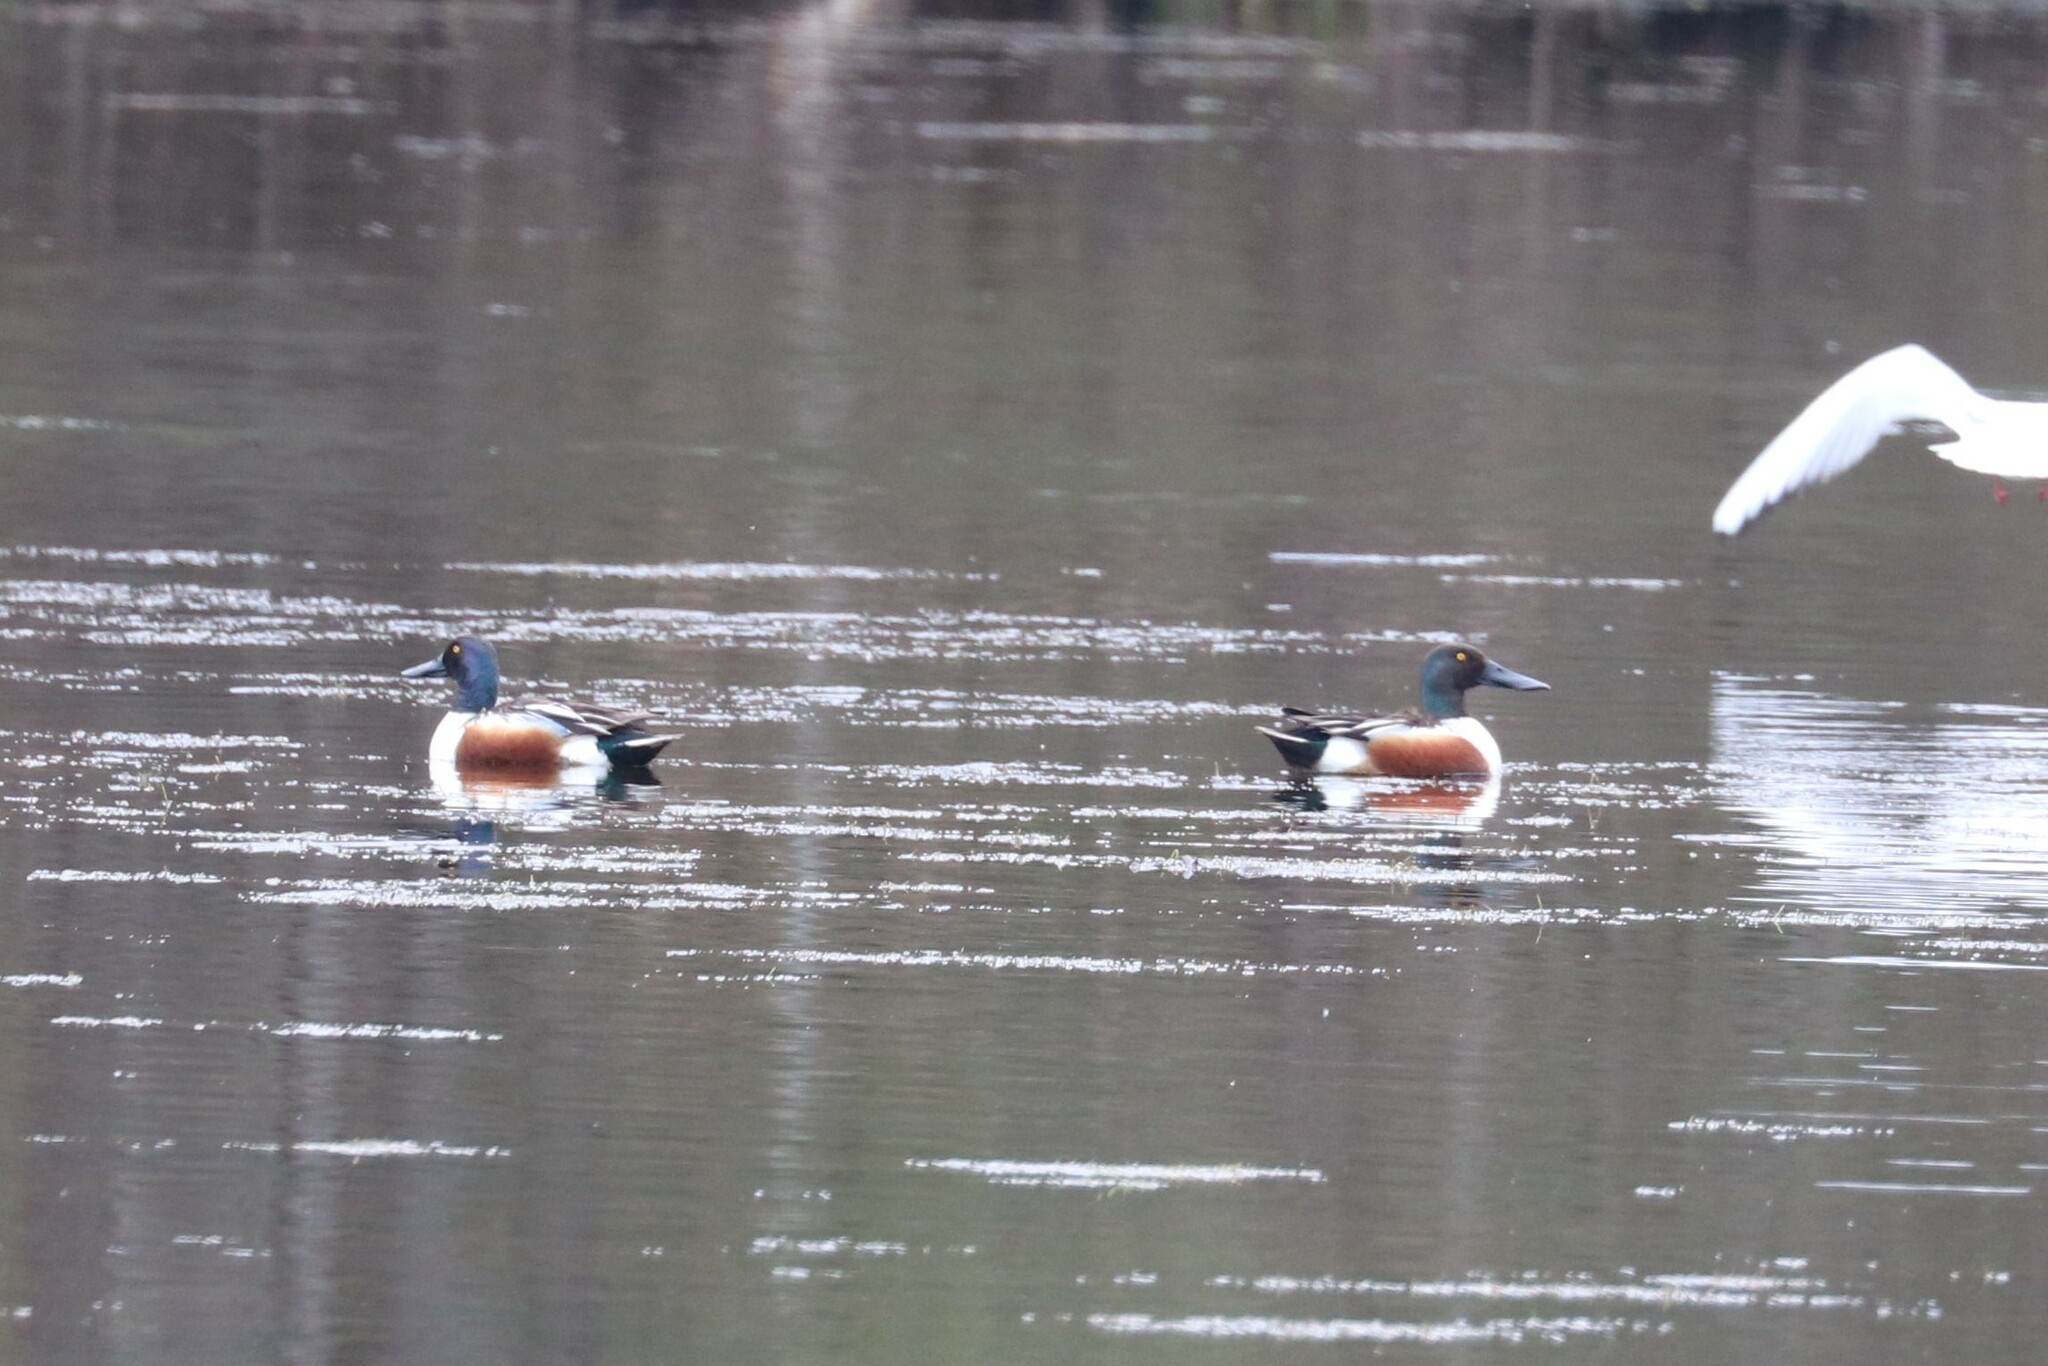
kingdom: Animalia
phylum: Chordata
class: Aves
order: Anseriformes
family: Anatidae
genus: Spatula
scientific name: Spatula clypeata
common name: Northern shoveler
